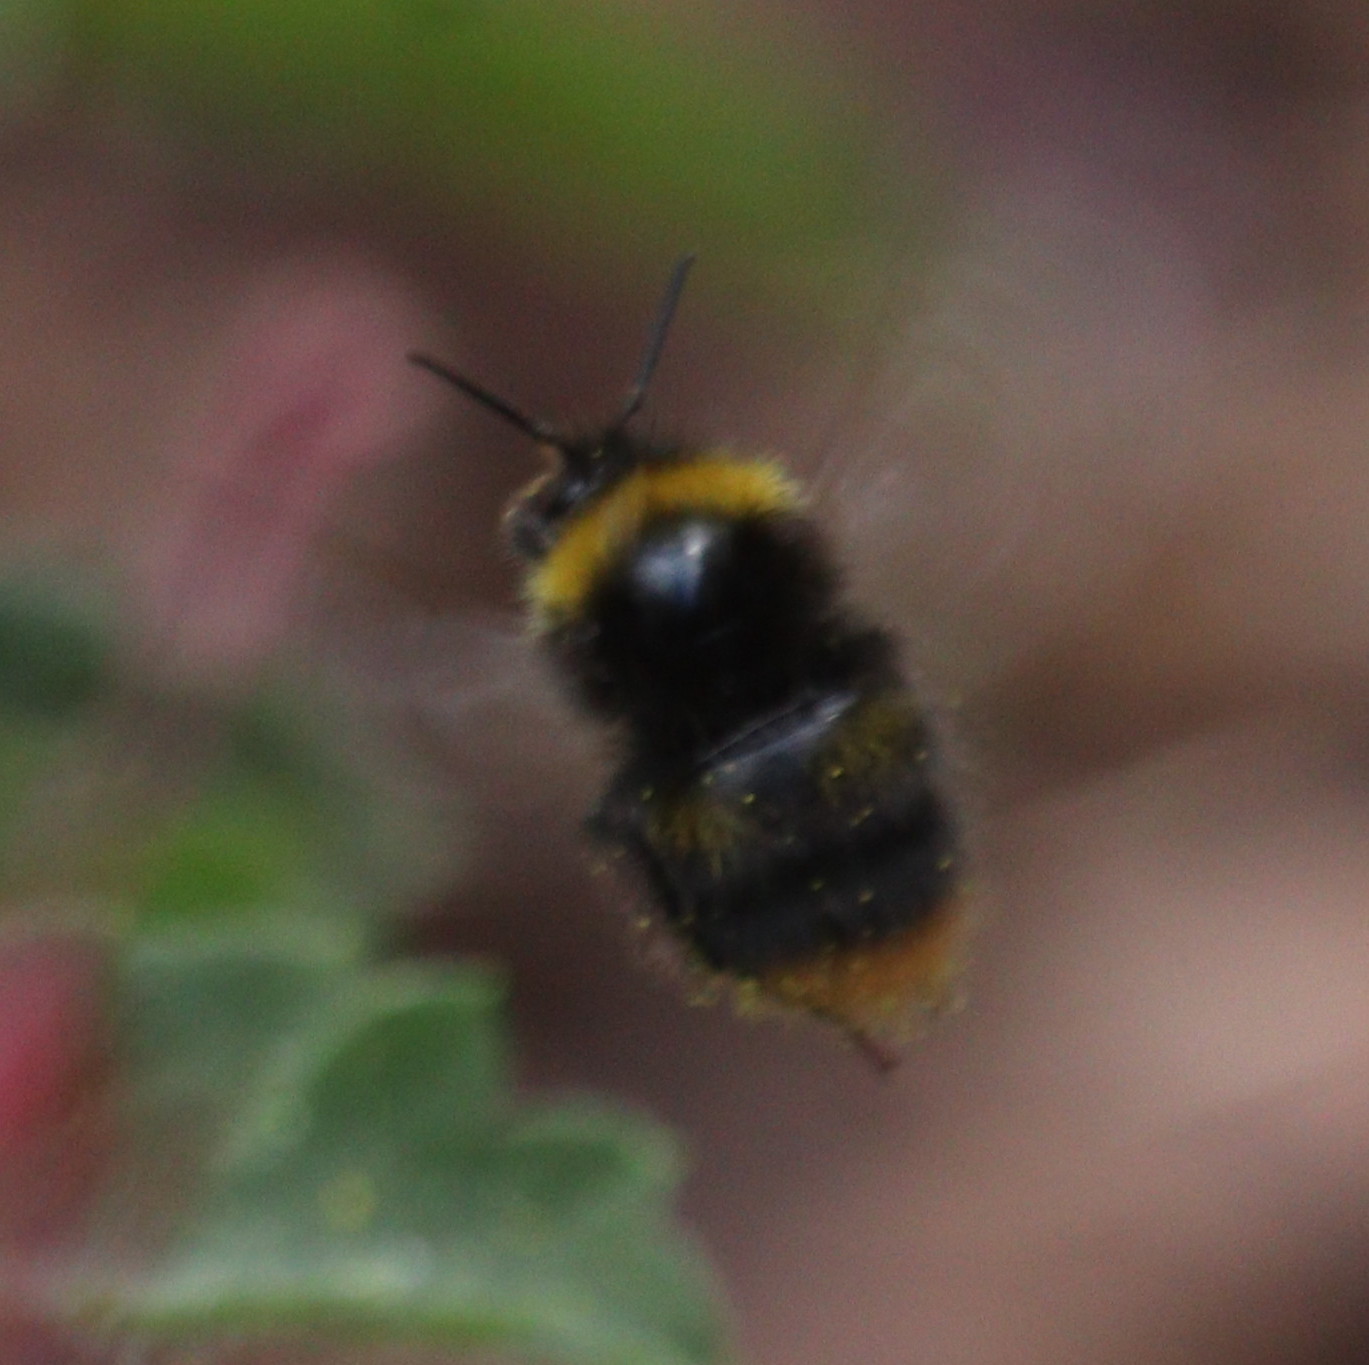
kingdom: Animalia
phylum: Arthropoda
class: Insecta
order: Hymenoptera
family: Apidae
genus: Bombus
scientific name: Bombus pratorum
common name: Early humble-bee
